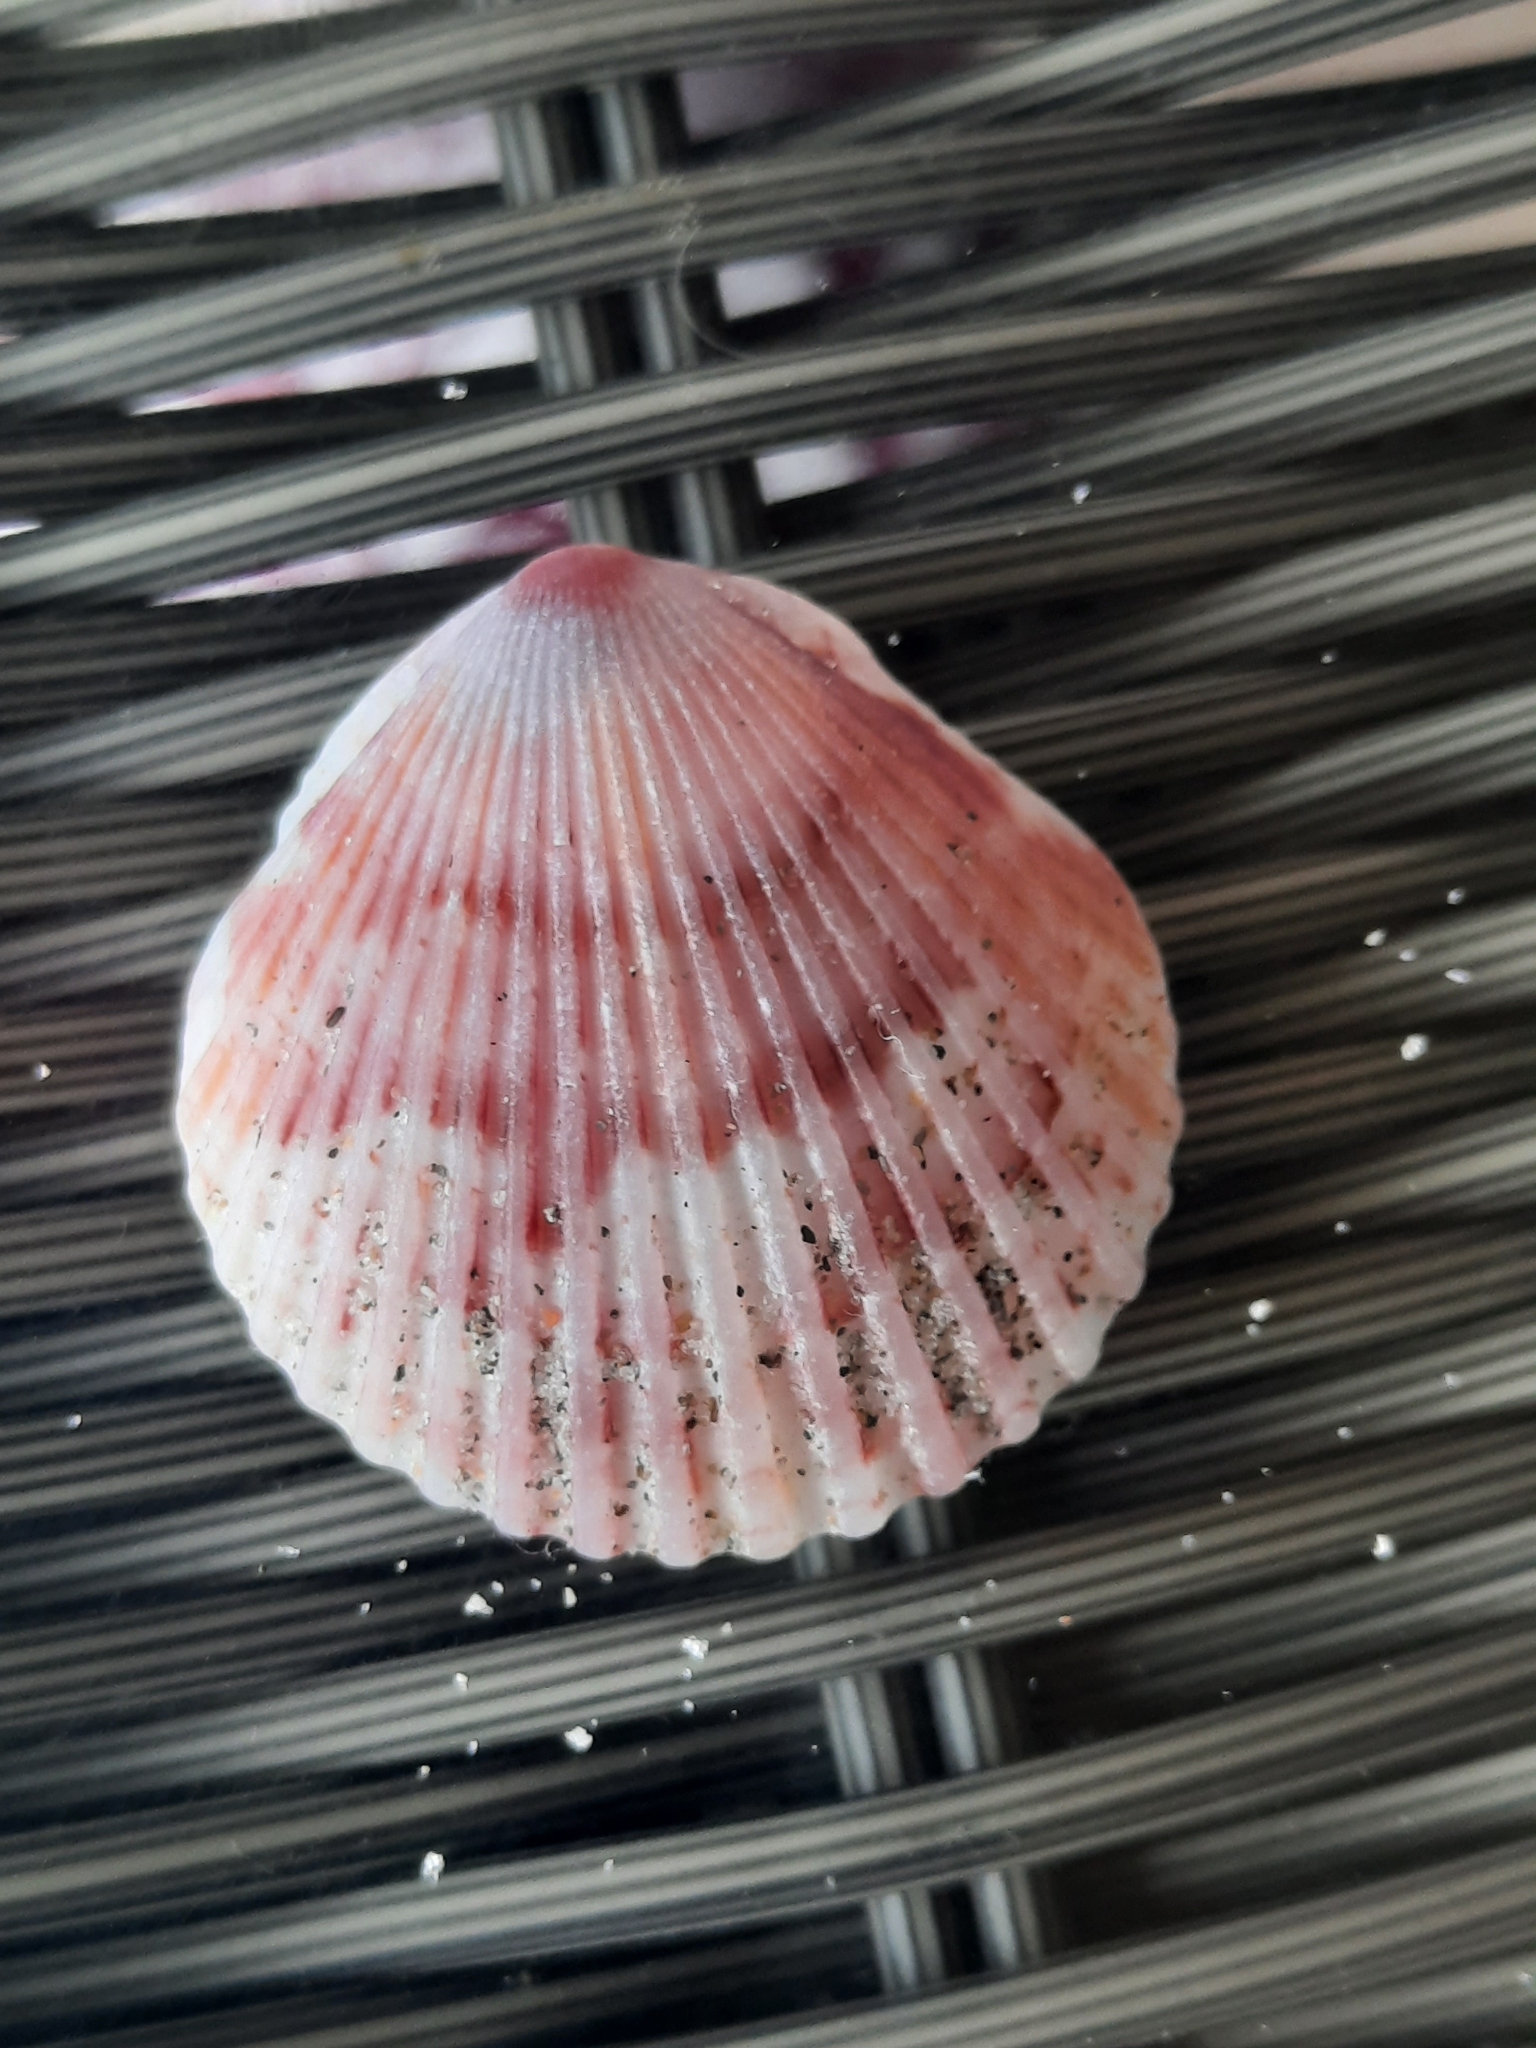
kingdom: Animalia
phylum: Mollusca
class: Bivalvia
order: Pectinida
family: Pectinidae
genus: Argopecten
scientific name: Argopecten gibbus
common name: Atlantic calico scallop
